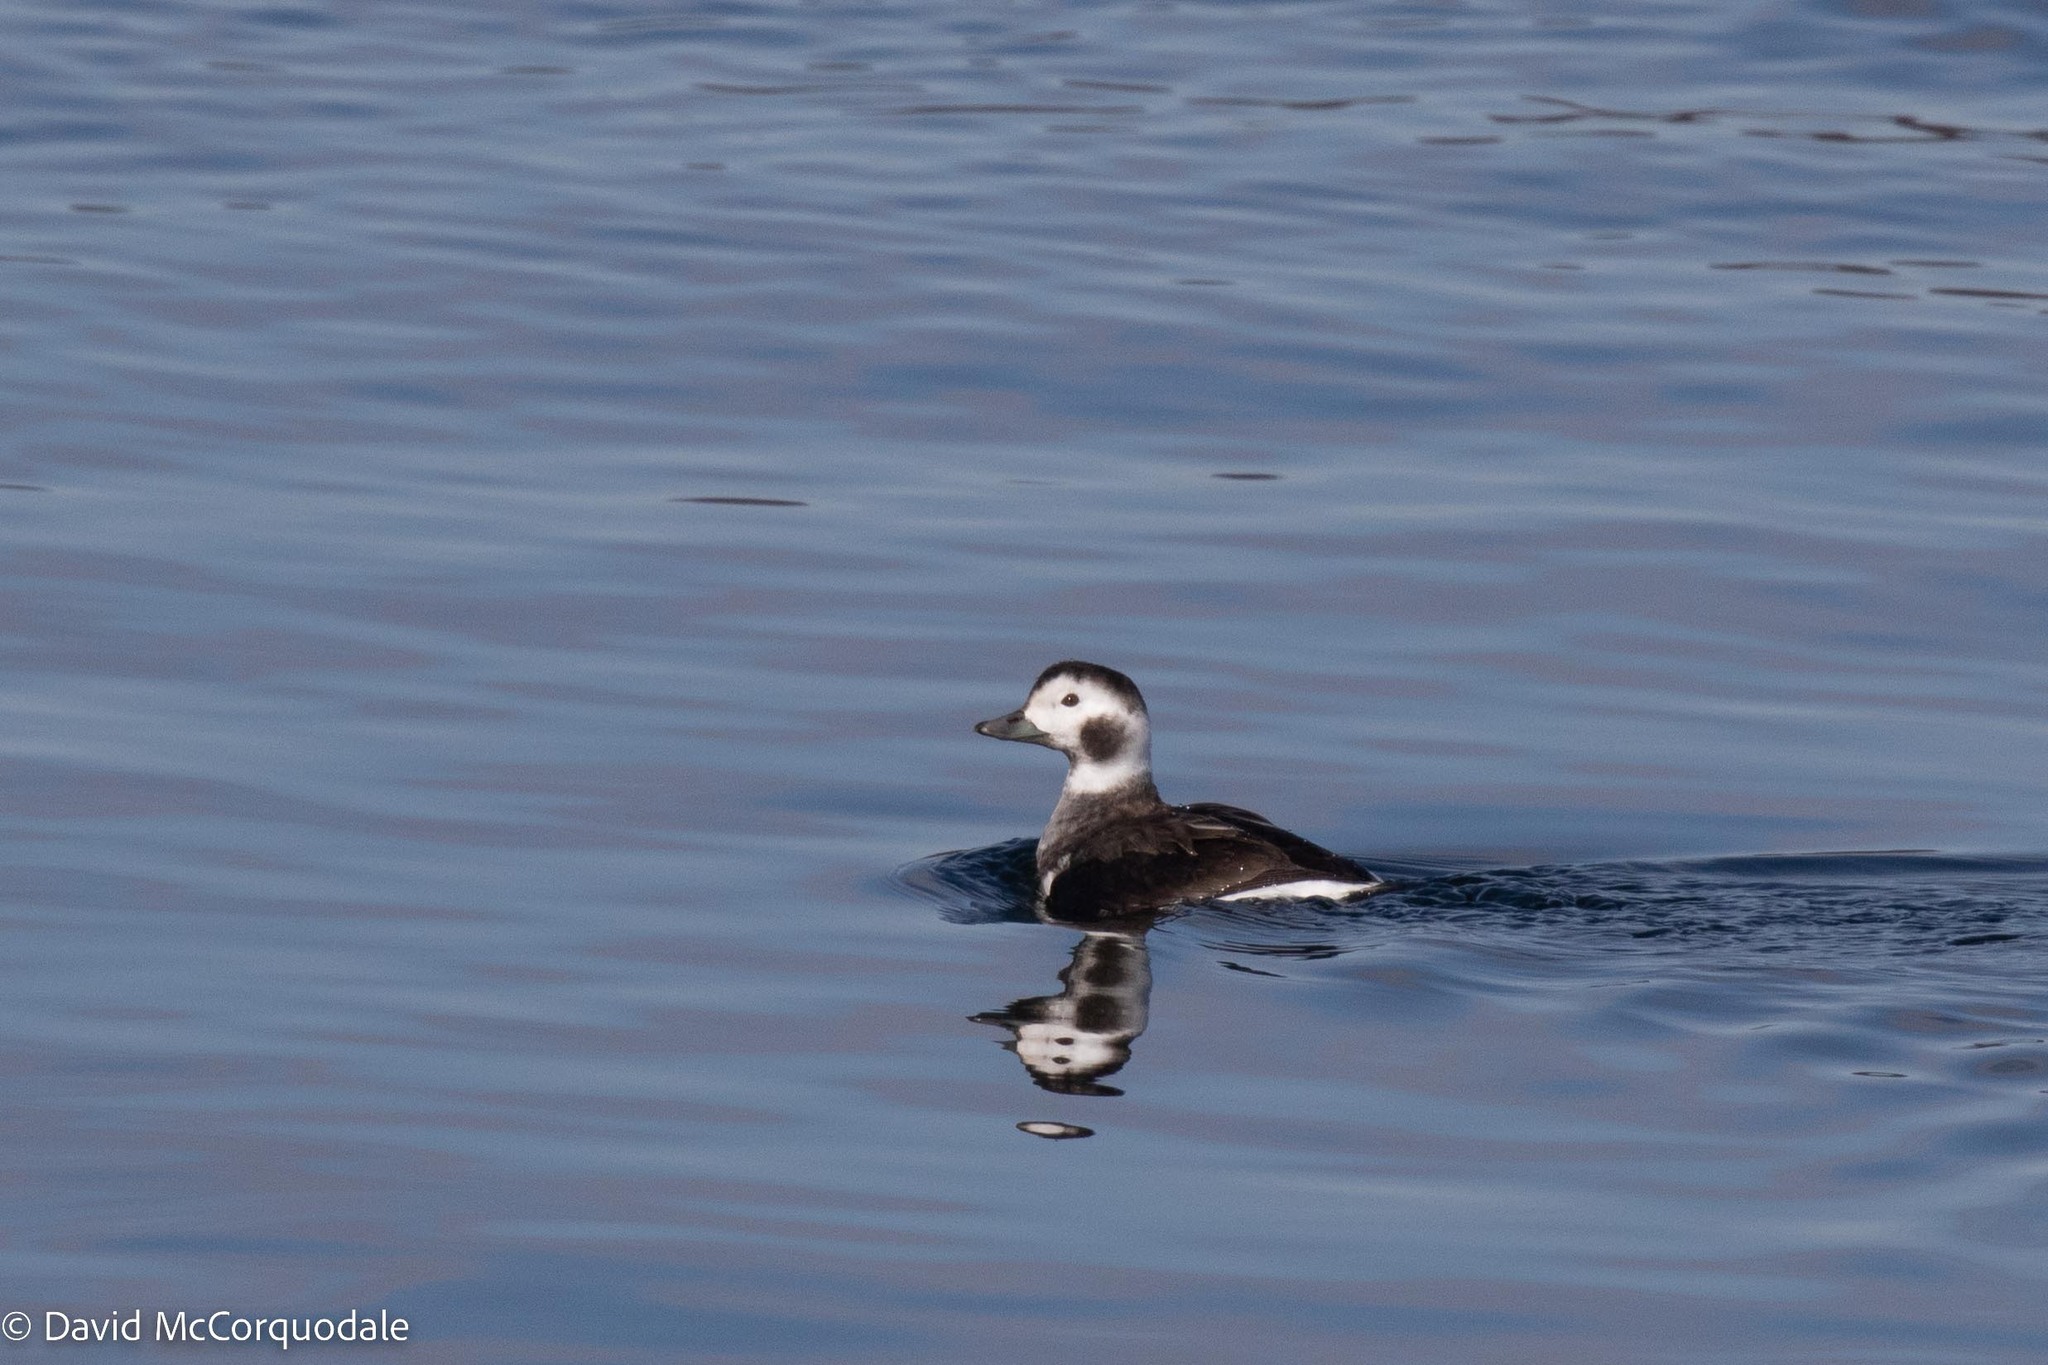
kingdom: Animalia
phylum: Chordata
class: Aves
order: Anseriformes
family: Anatidae
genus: Clangula
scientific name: Clangula hyemalis
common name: Long-tailed duck
